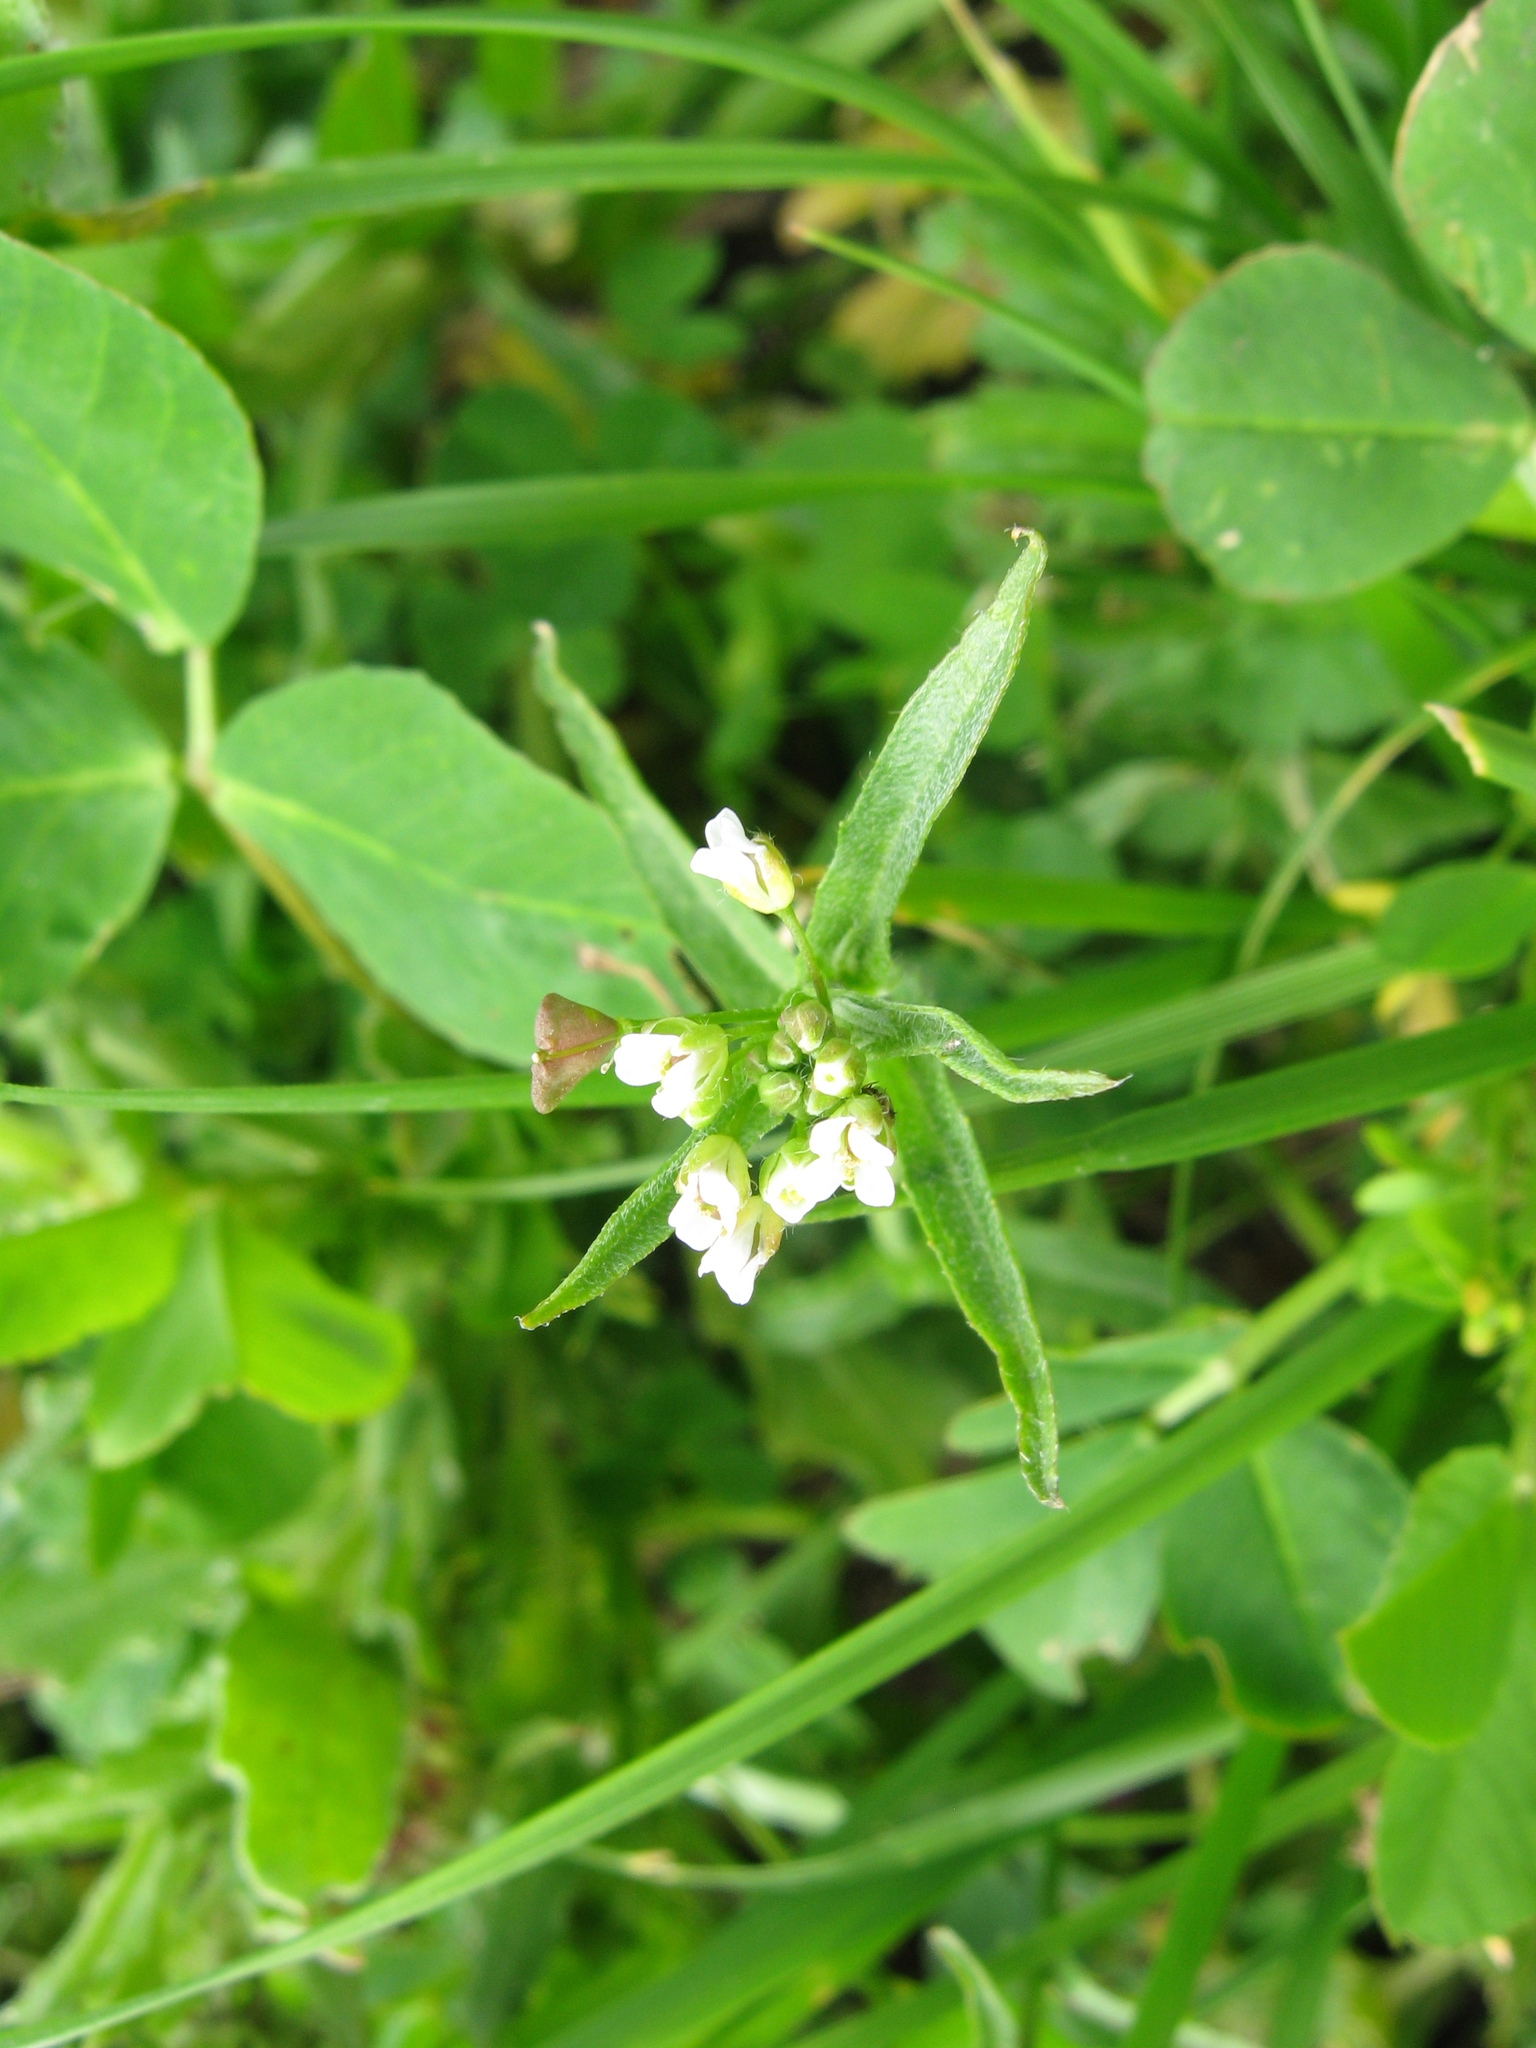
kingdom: Plantae
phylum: Tracheophyta
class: Magnoliopsida
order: Brassicales
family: Brassicaceae
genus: Capsella
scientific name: Capsella bursa-pastoris
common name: Shepherd's purse
